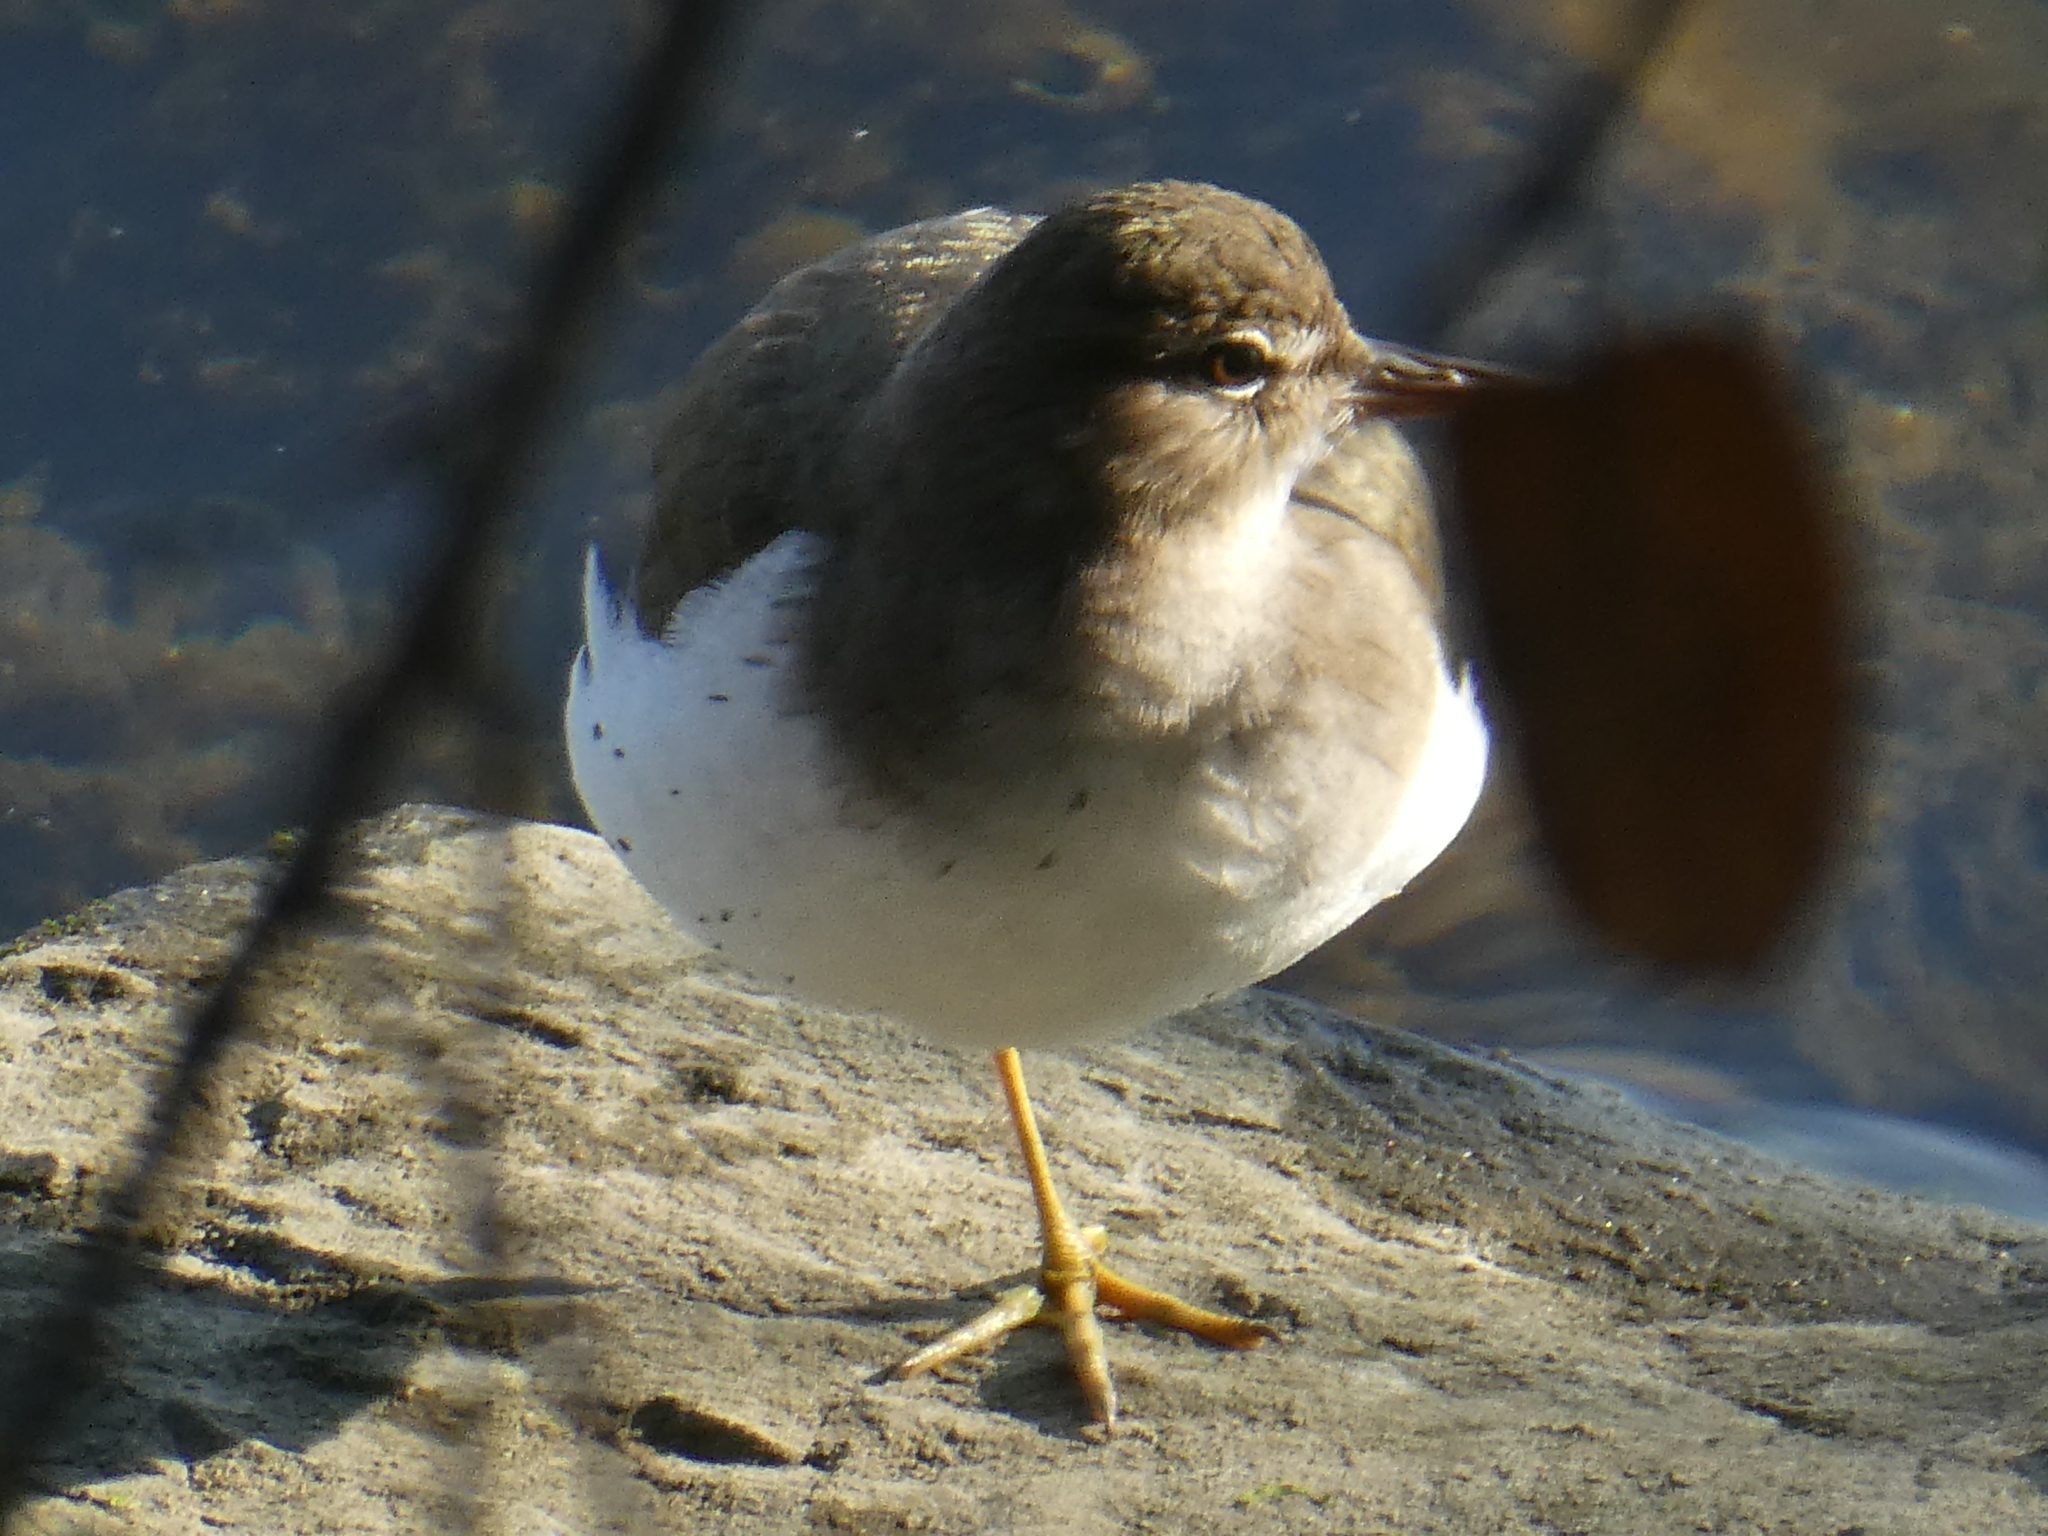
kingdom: Animalia
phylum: Chordata
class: Aves
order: Charadriiformes
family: Scolopacidae
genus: Actitis
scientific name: Actitis macularius
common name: Spotted sandpiper
